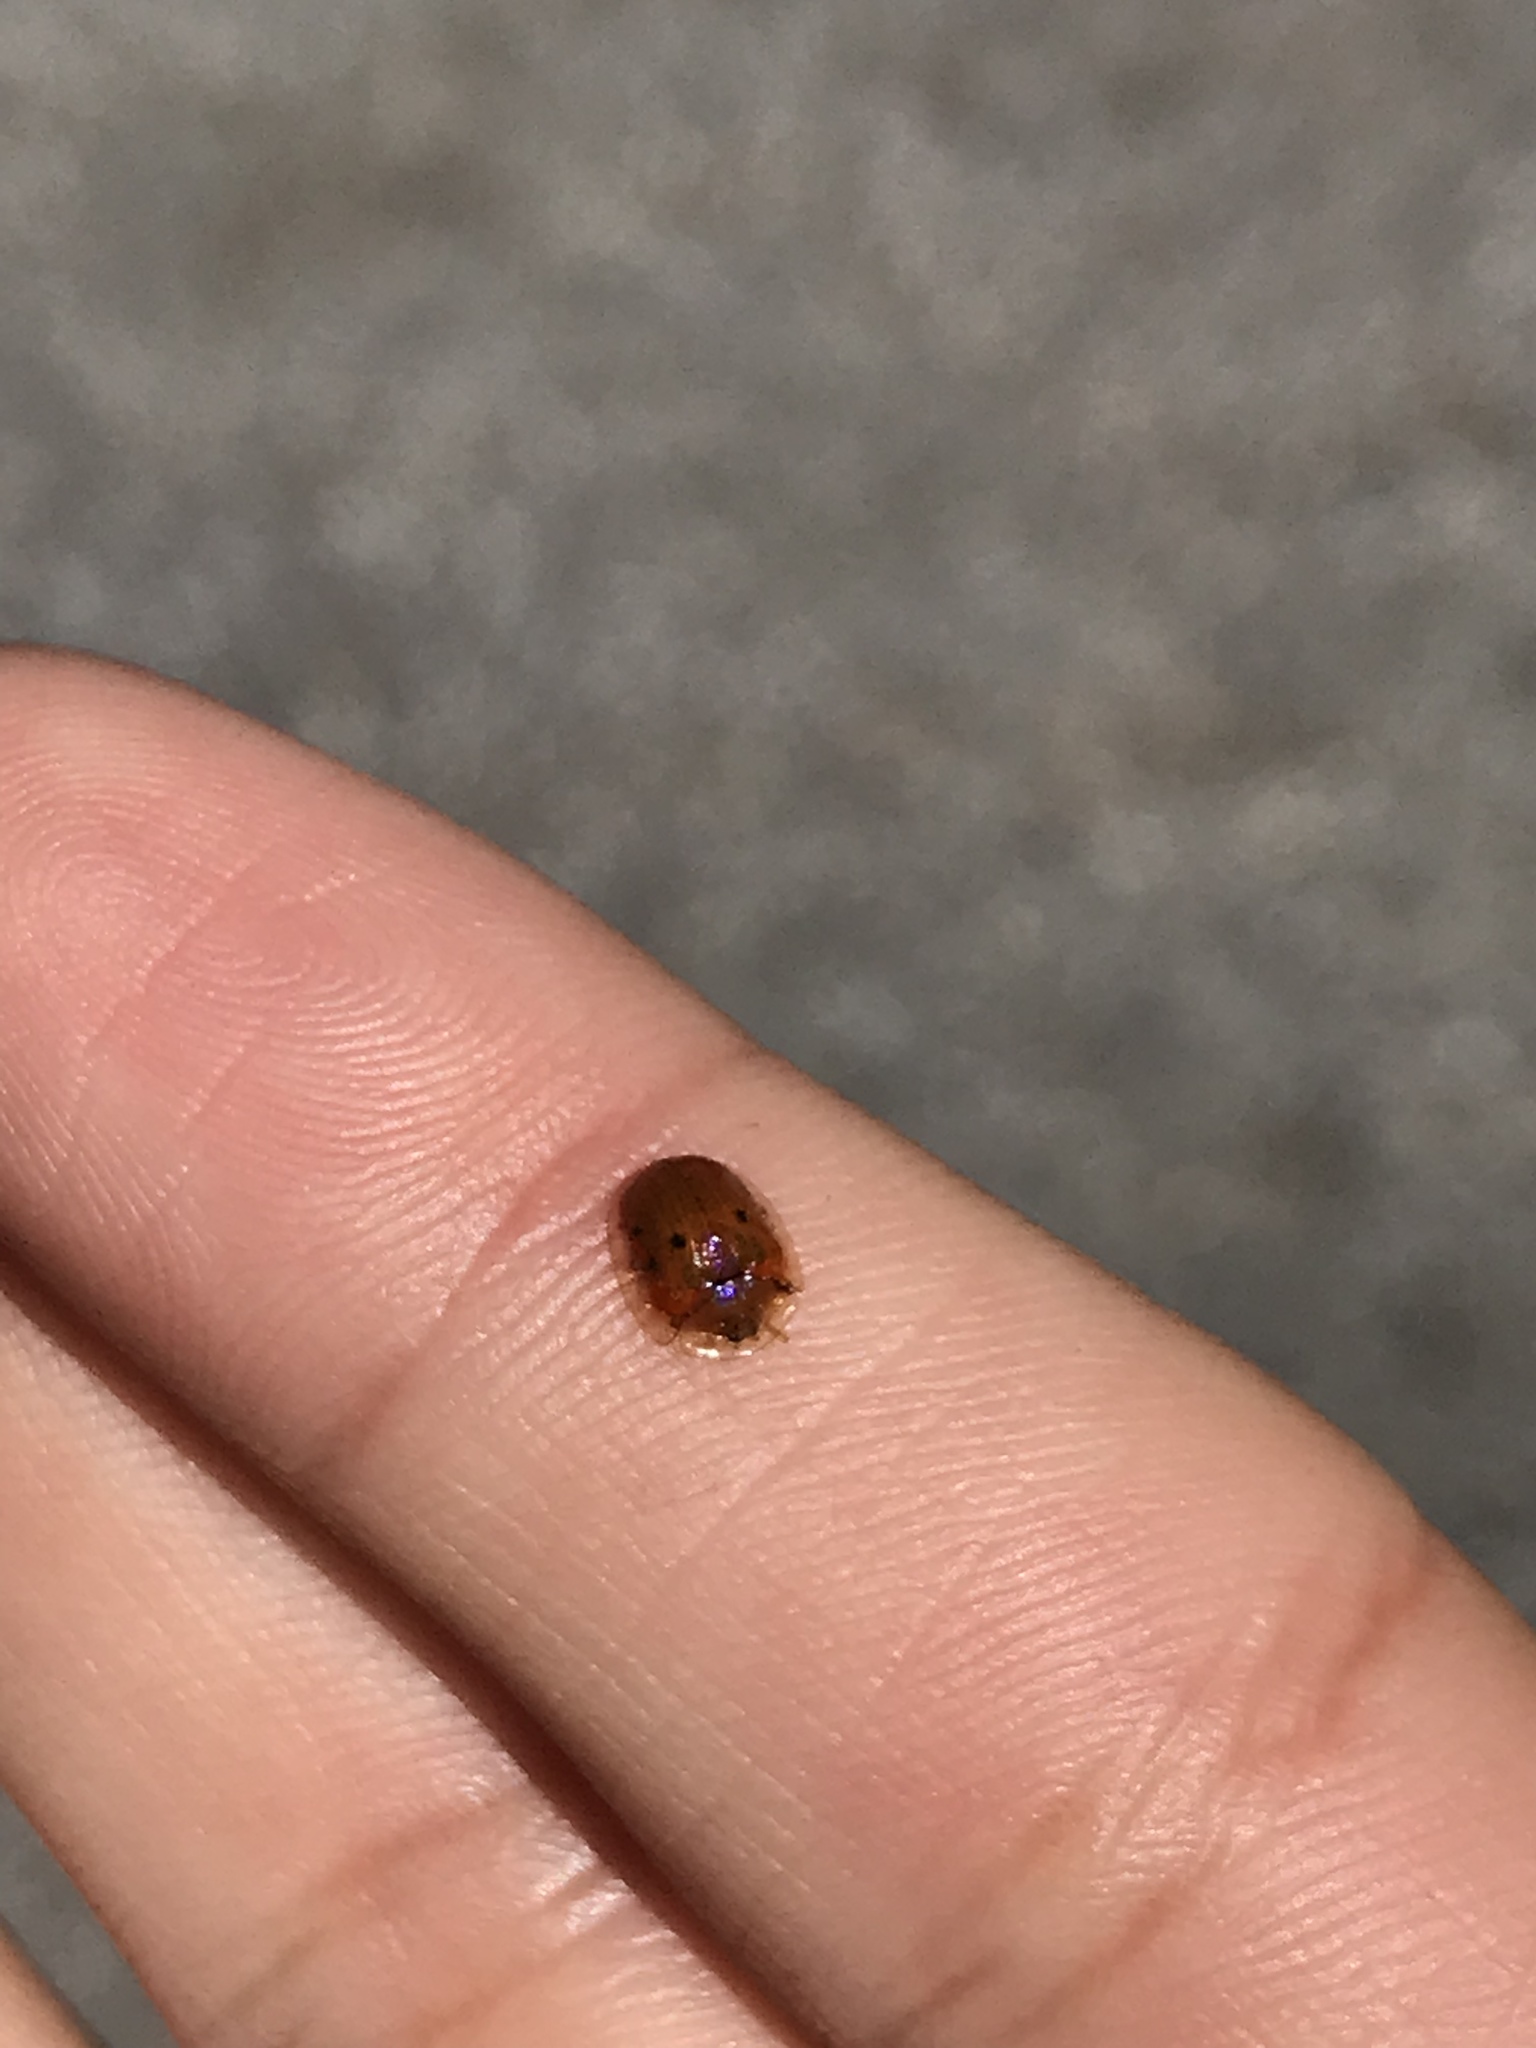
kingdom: Animalia
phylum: Arthropoda
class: Insecta
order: Coleoptera
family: Chrysomelidae
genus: Charidotella
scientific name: Charidotella sexpunctata
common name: Golden tortoise beetle
